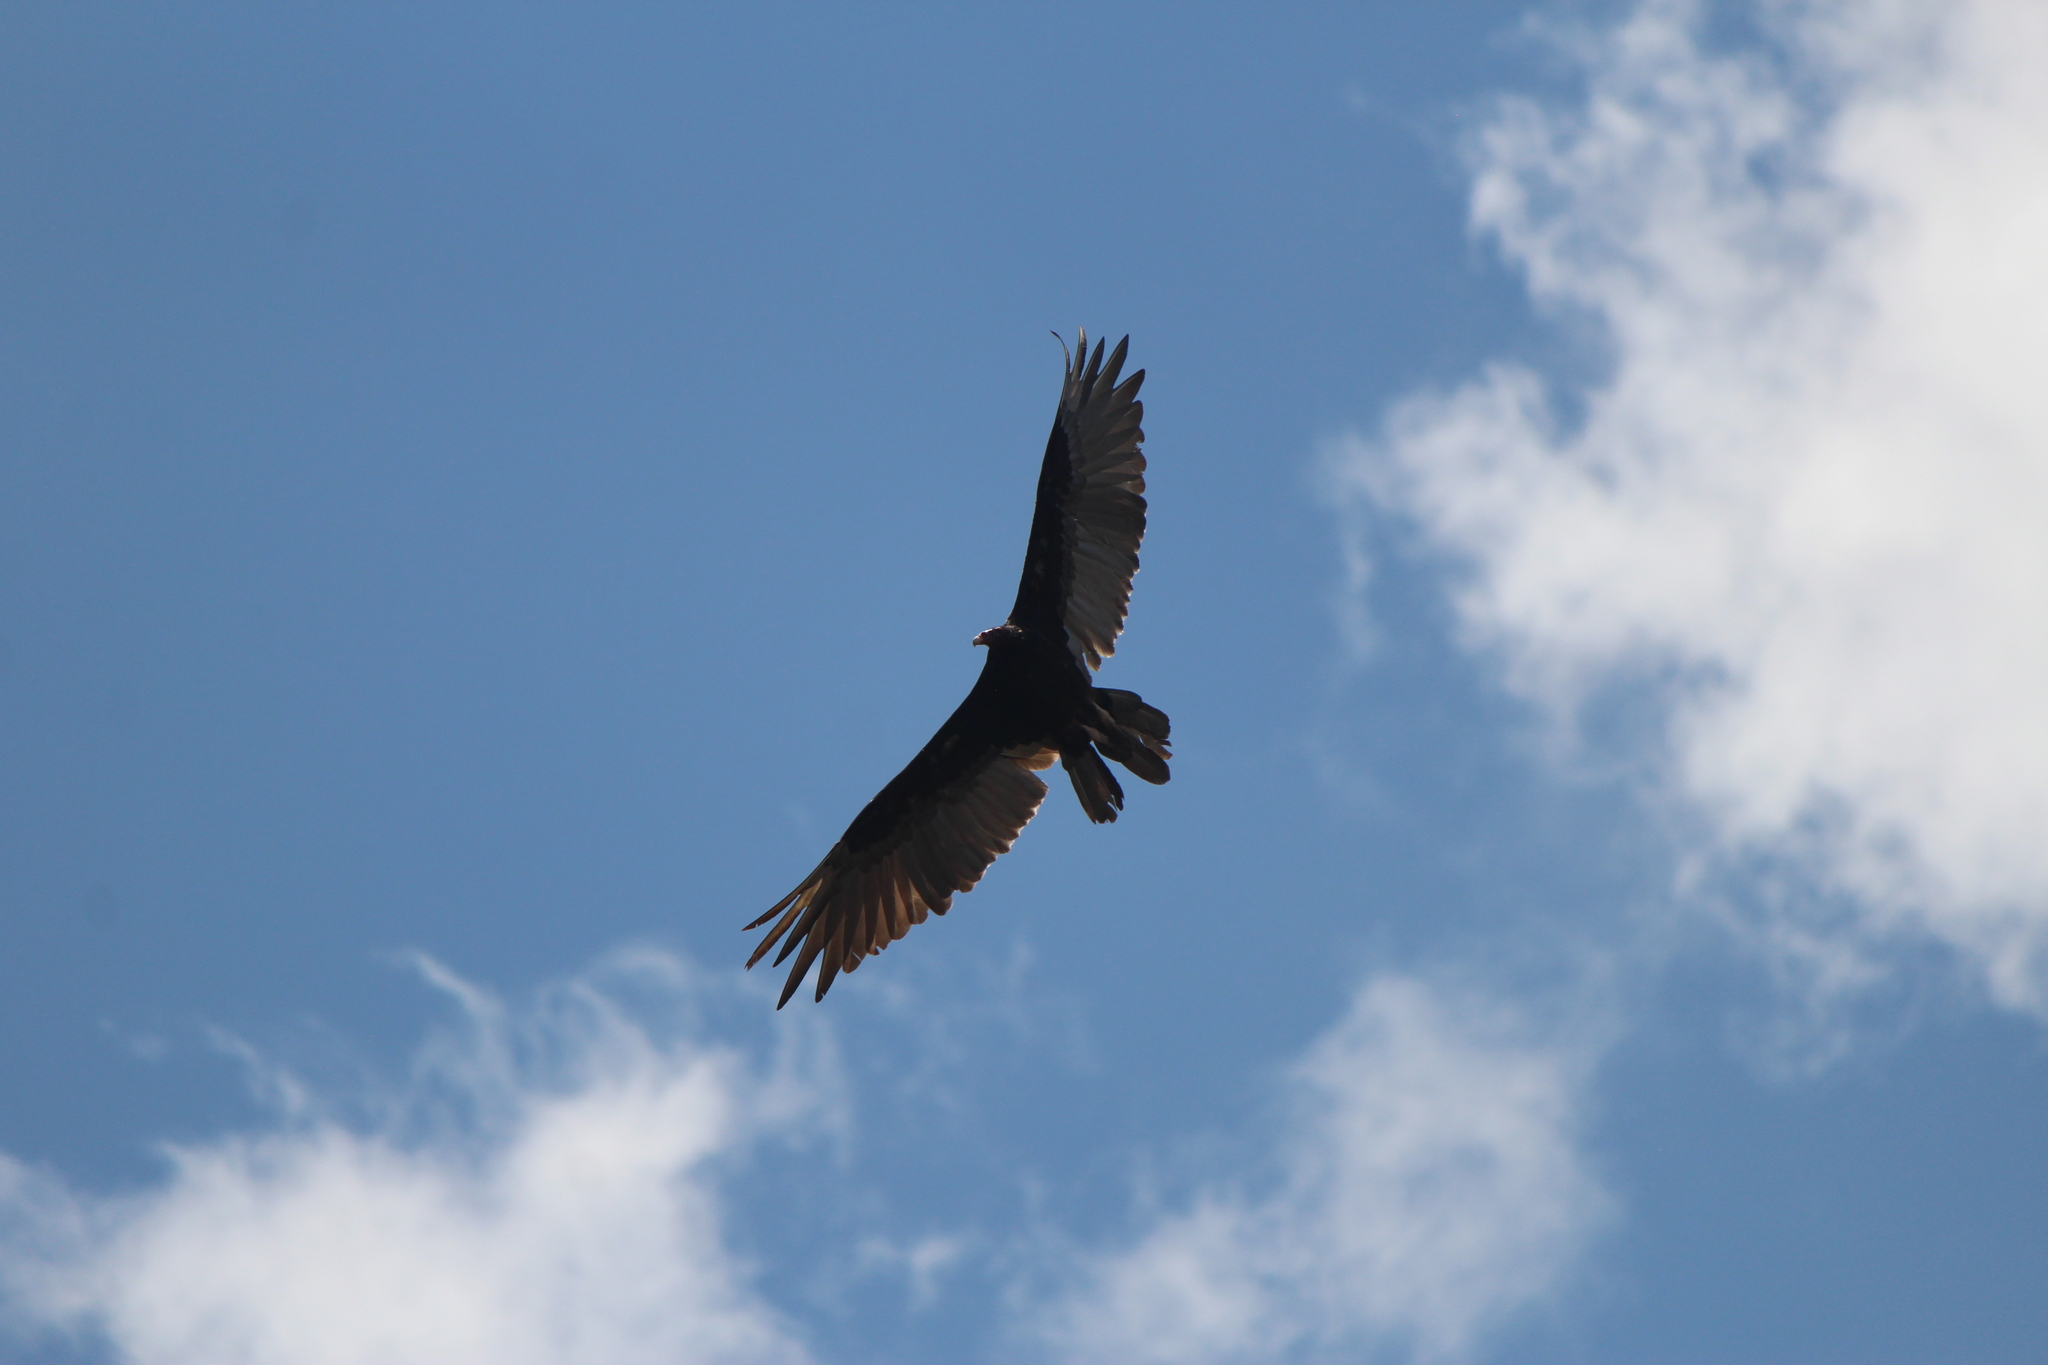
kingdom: Animalia
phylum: Chordata
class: Aves
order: Accipitriformes
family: Cathartidae
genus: Cathartes
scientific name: Cathartes aura
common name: Turkey vulture
